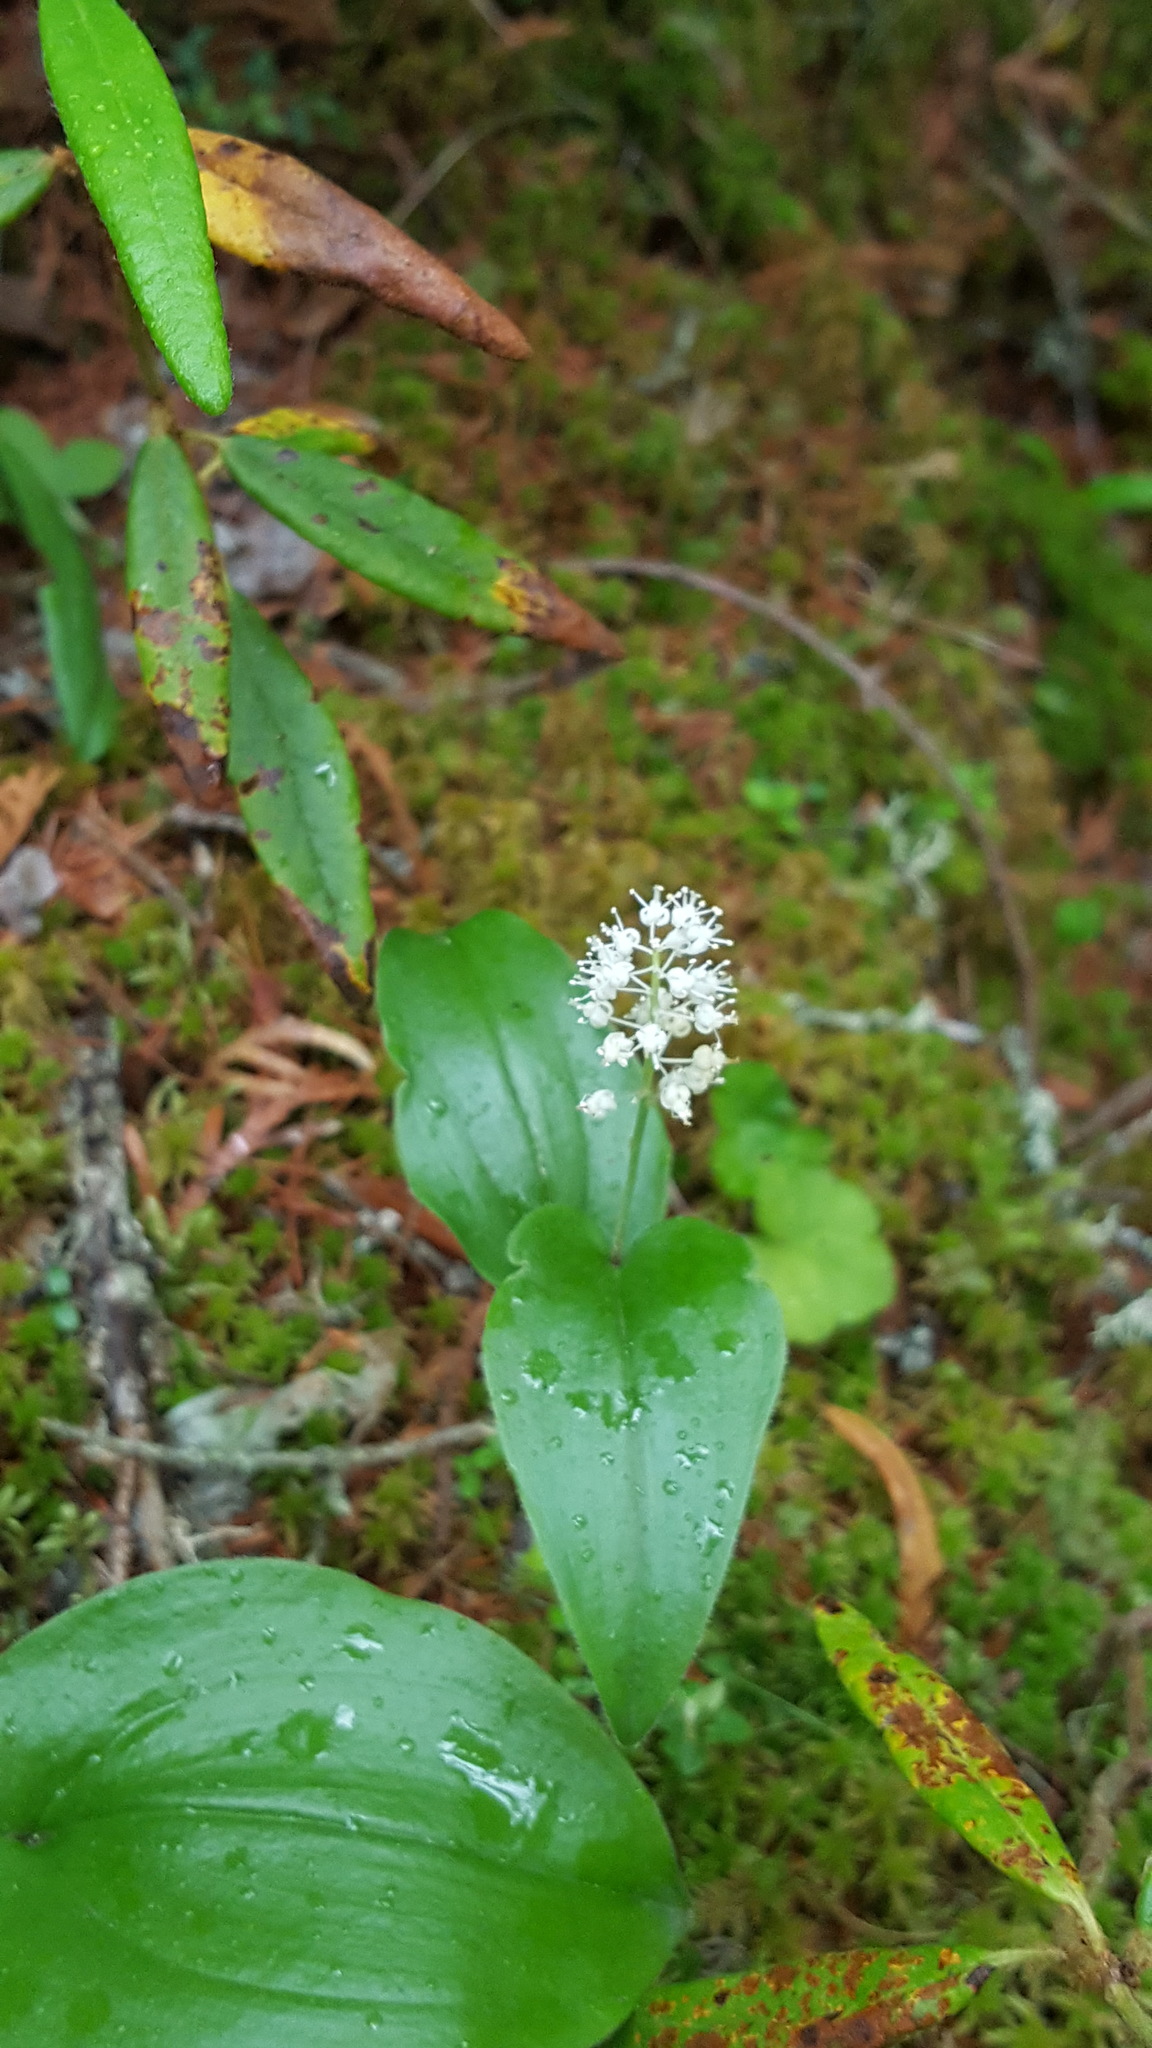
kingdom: Plantae
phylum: Tracheophyta
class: Liliopsida
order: Asparagales
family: Asparagaceae
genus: Maianthemum
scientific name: Maianthemum canadense
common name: False lily-of-the-valley
